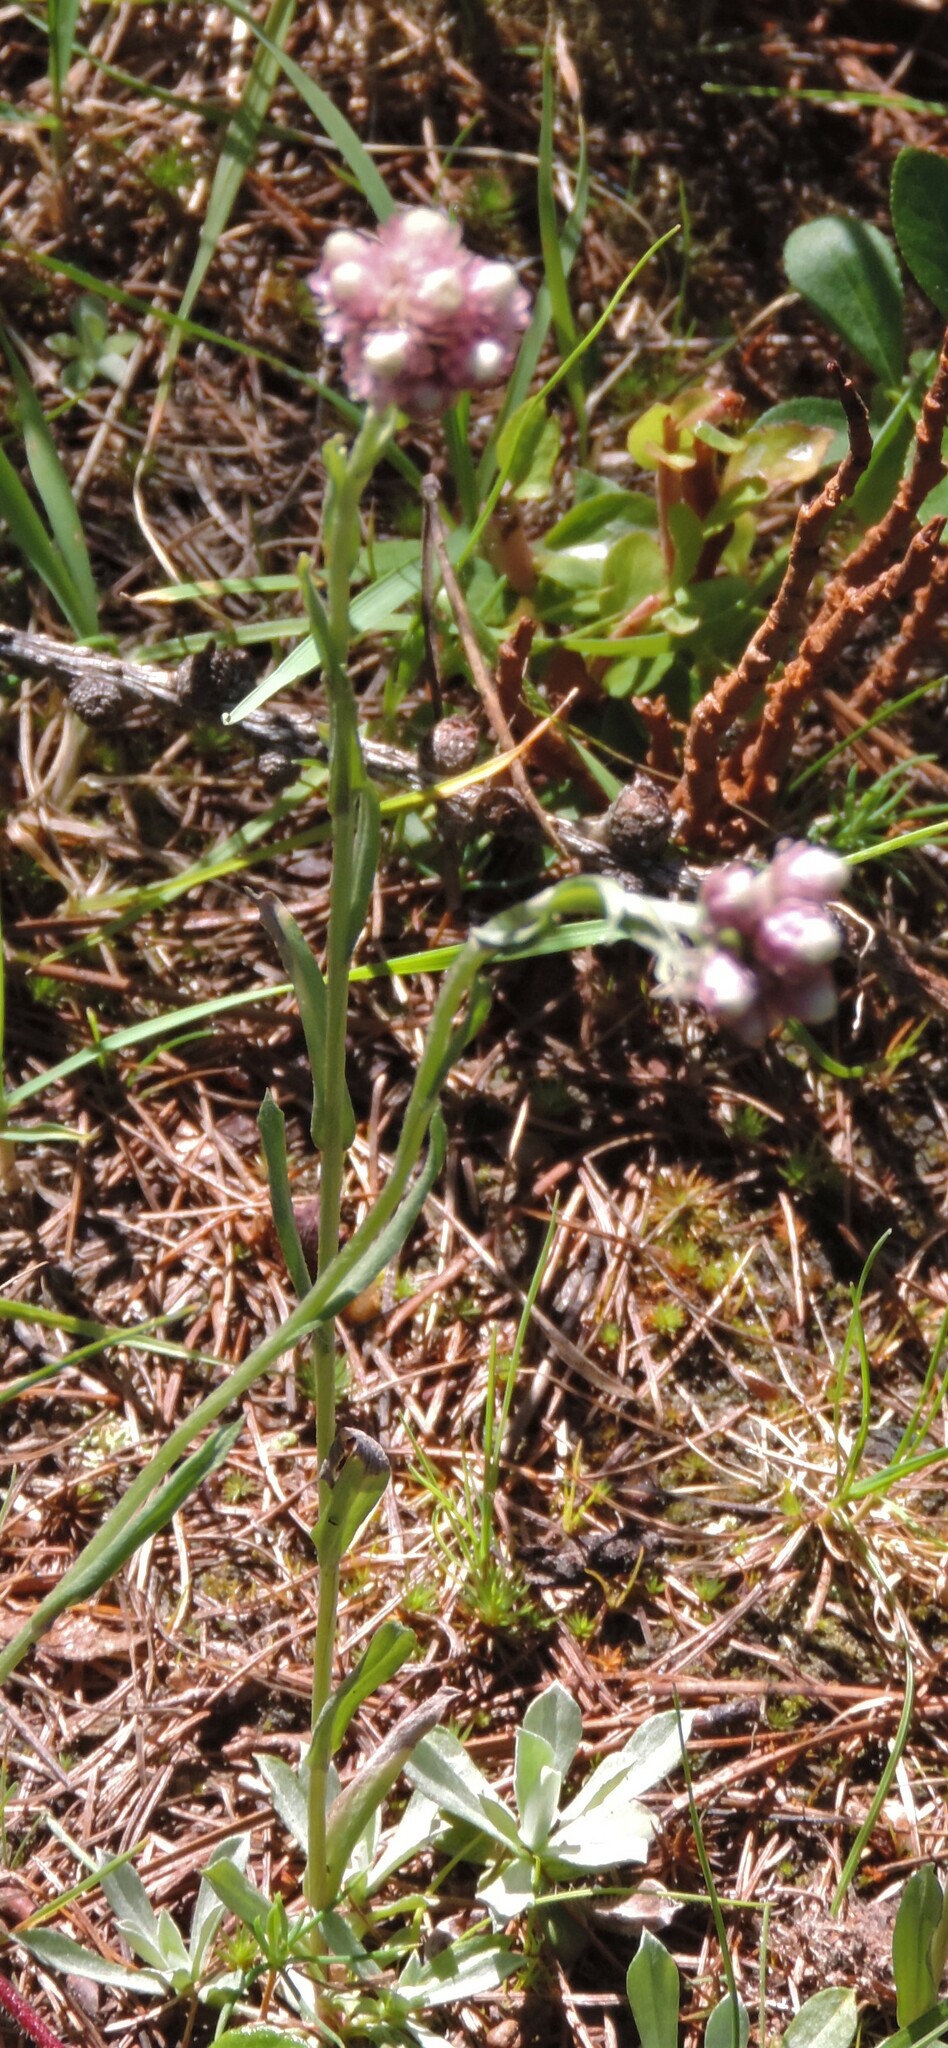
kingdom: Plantae
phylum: Tracheophyta
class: Magnoliopsida
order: Asterales
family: Asteraceae
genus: Antennaria
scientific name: Antennaria rosea
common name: Rosy pussytoes
